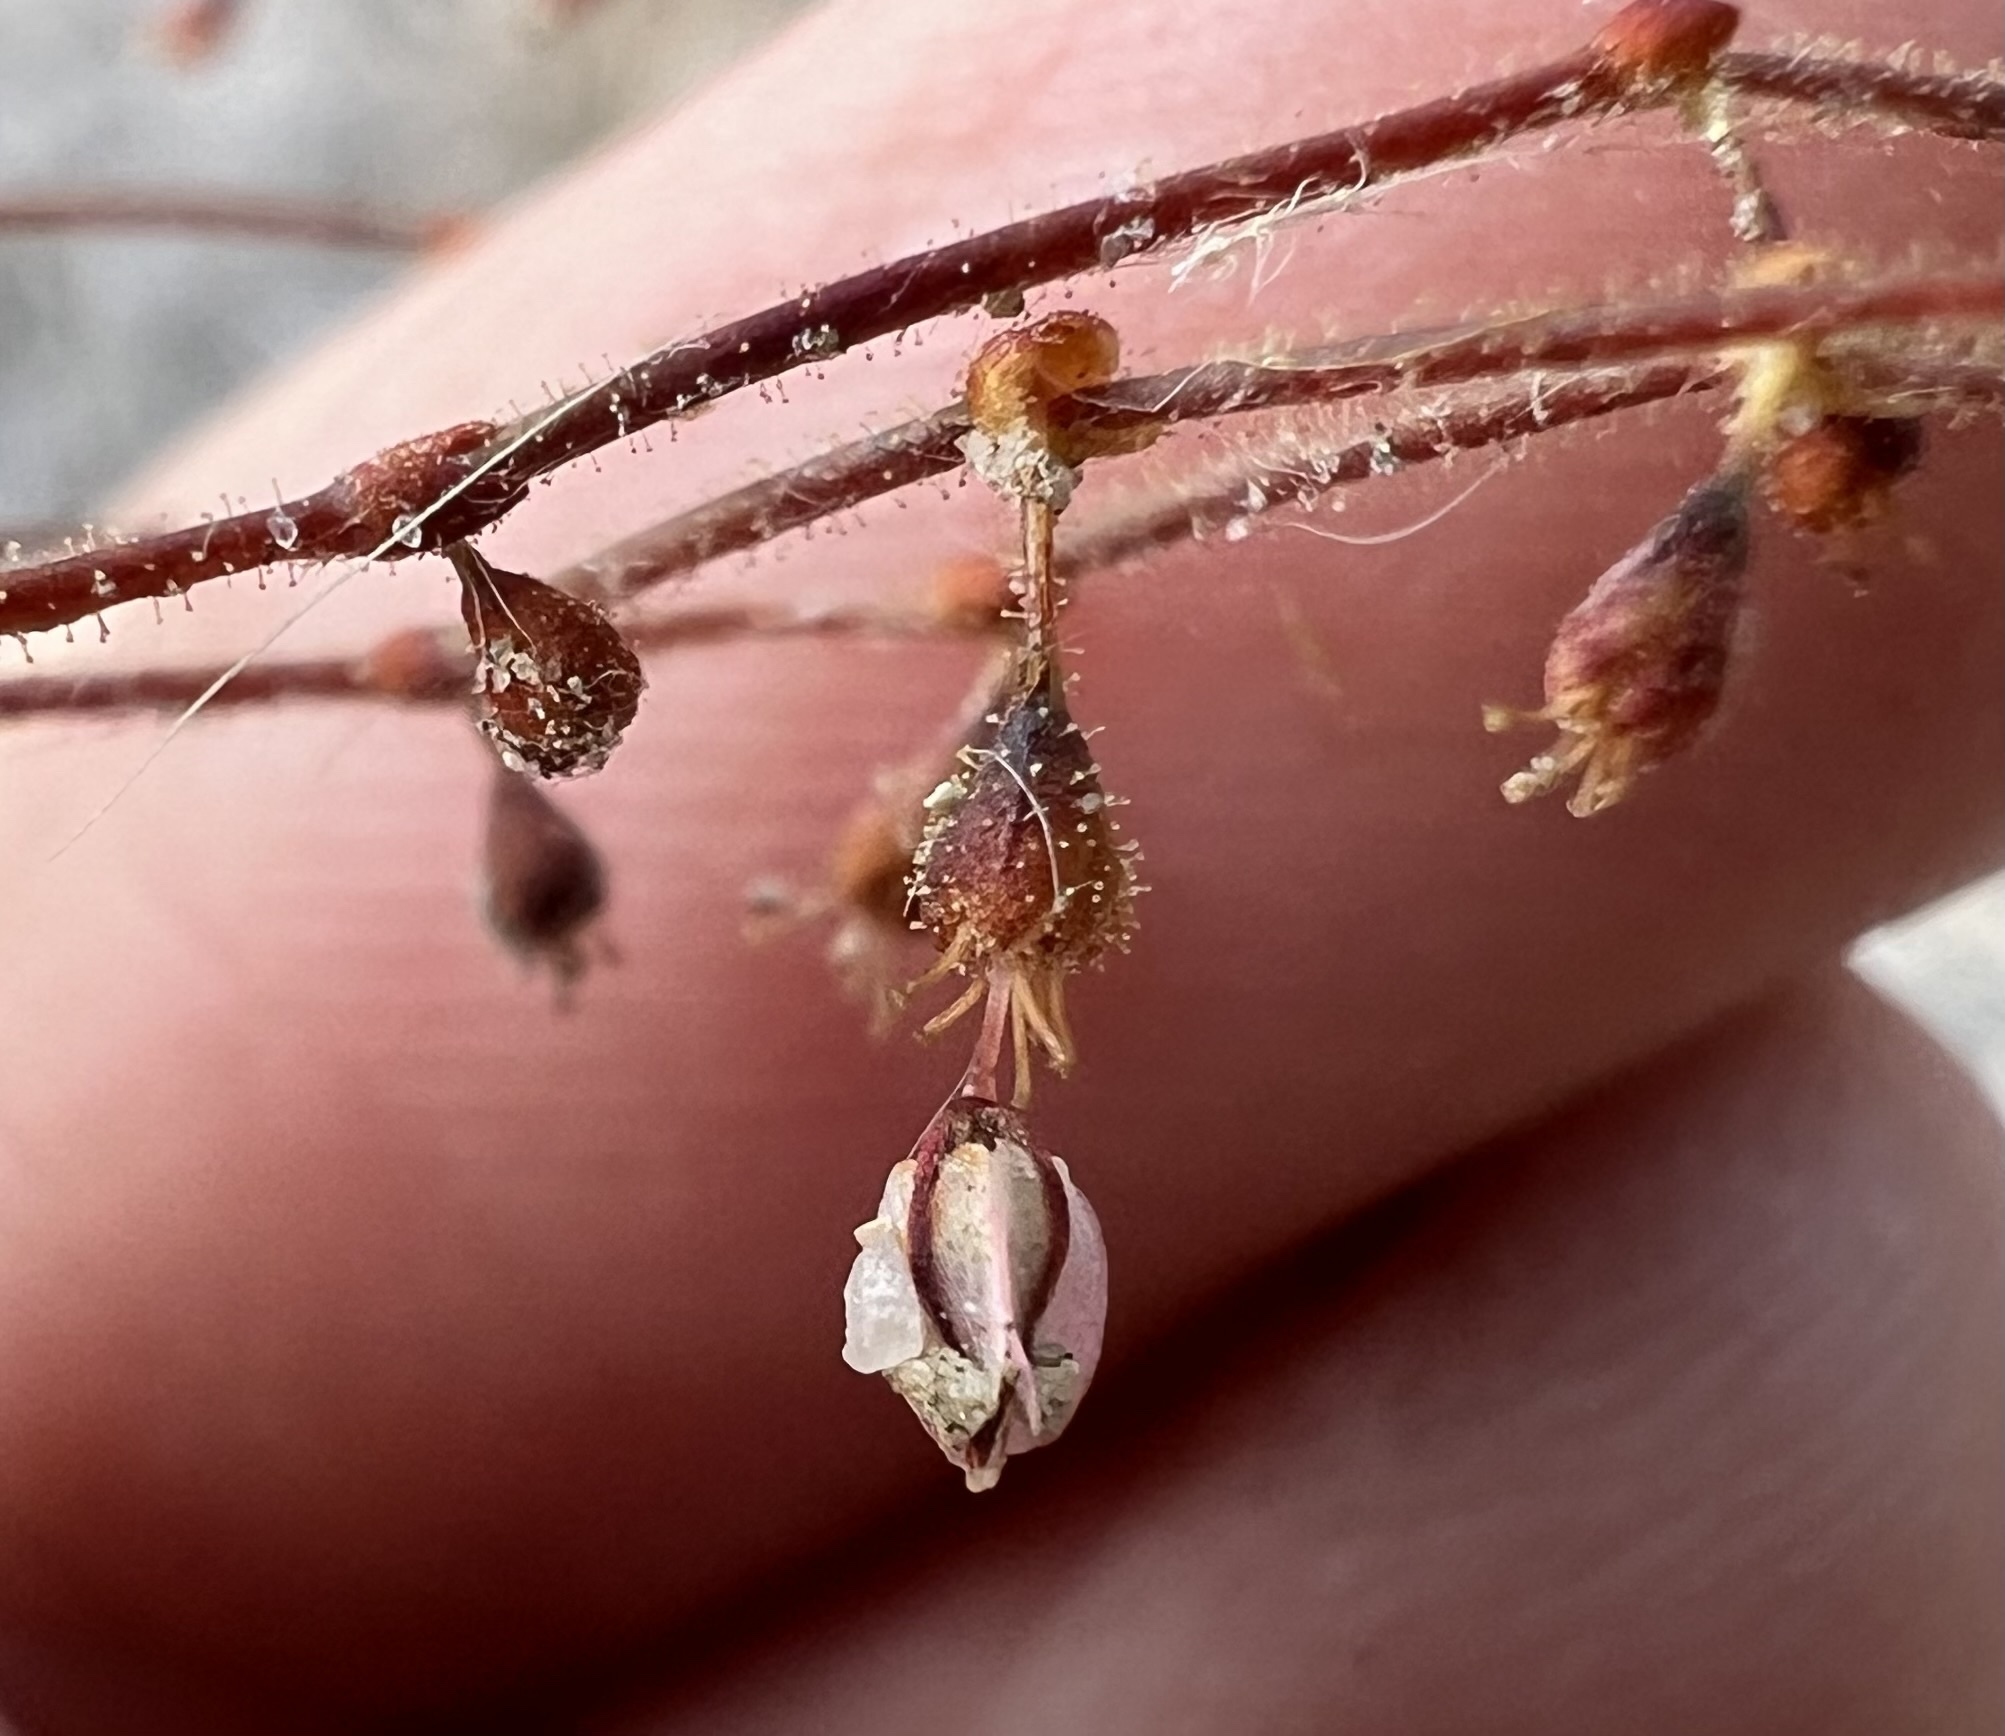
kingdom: Plantae
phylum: Tracheophyta
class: Magnoliopsida
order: Caryophyllales
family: Polygonaceae
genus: Eriogonum
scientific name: Eriogonum brachypodum
